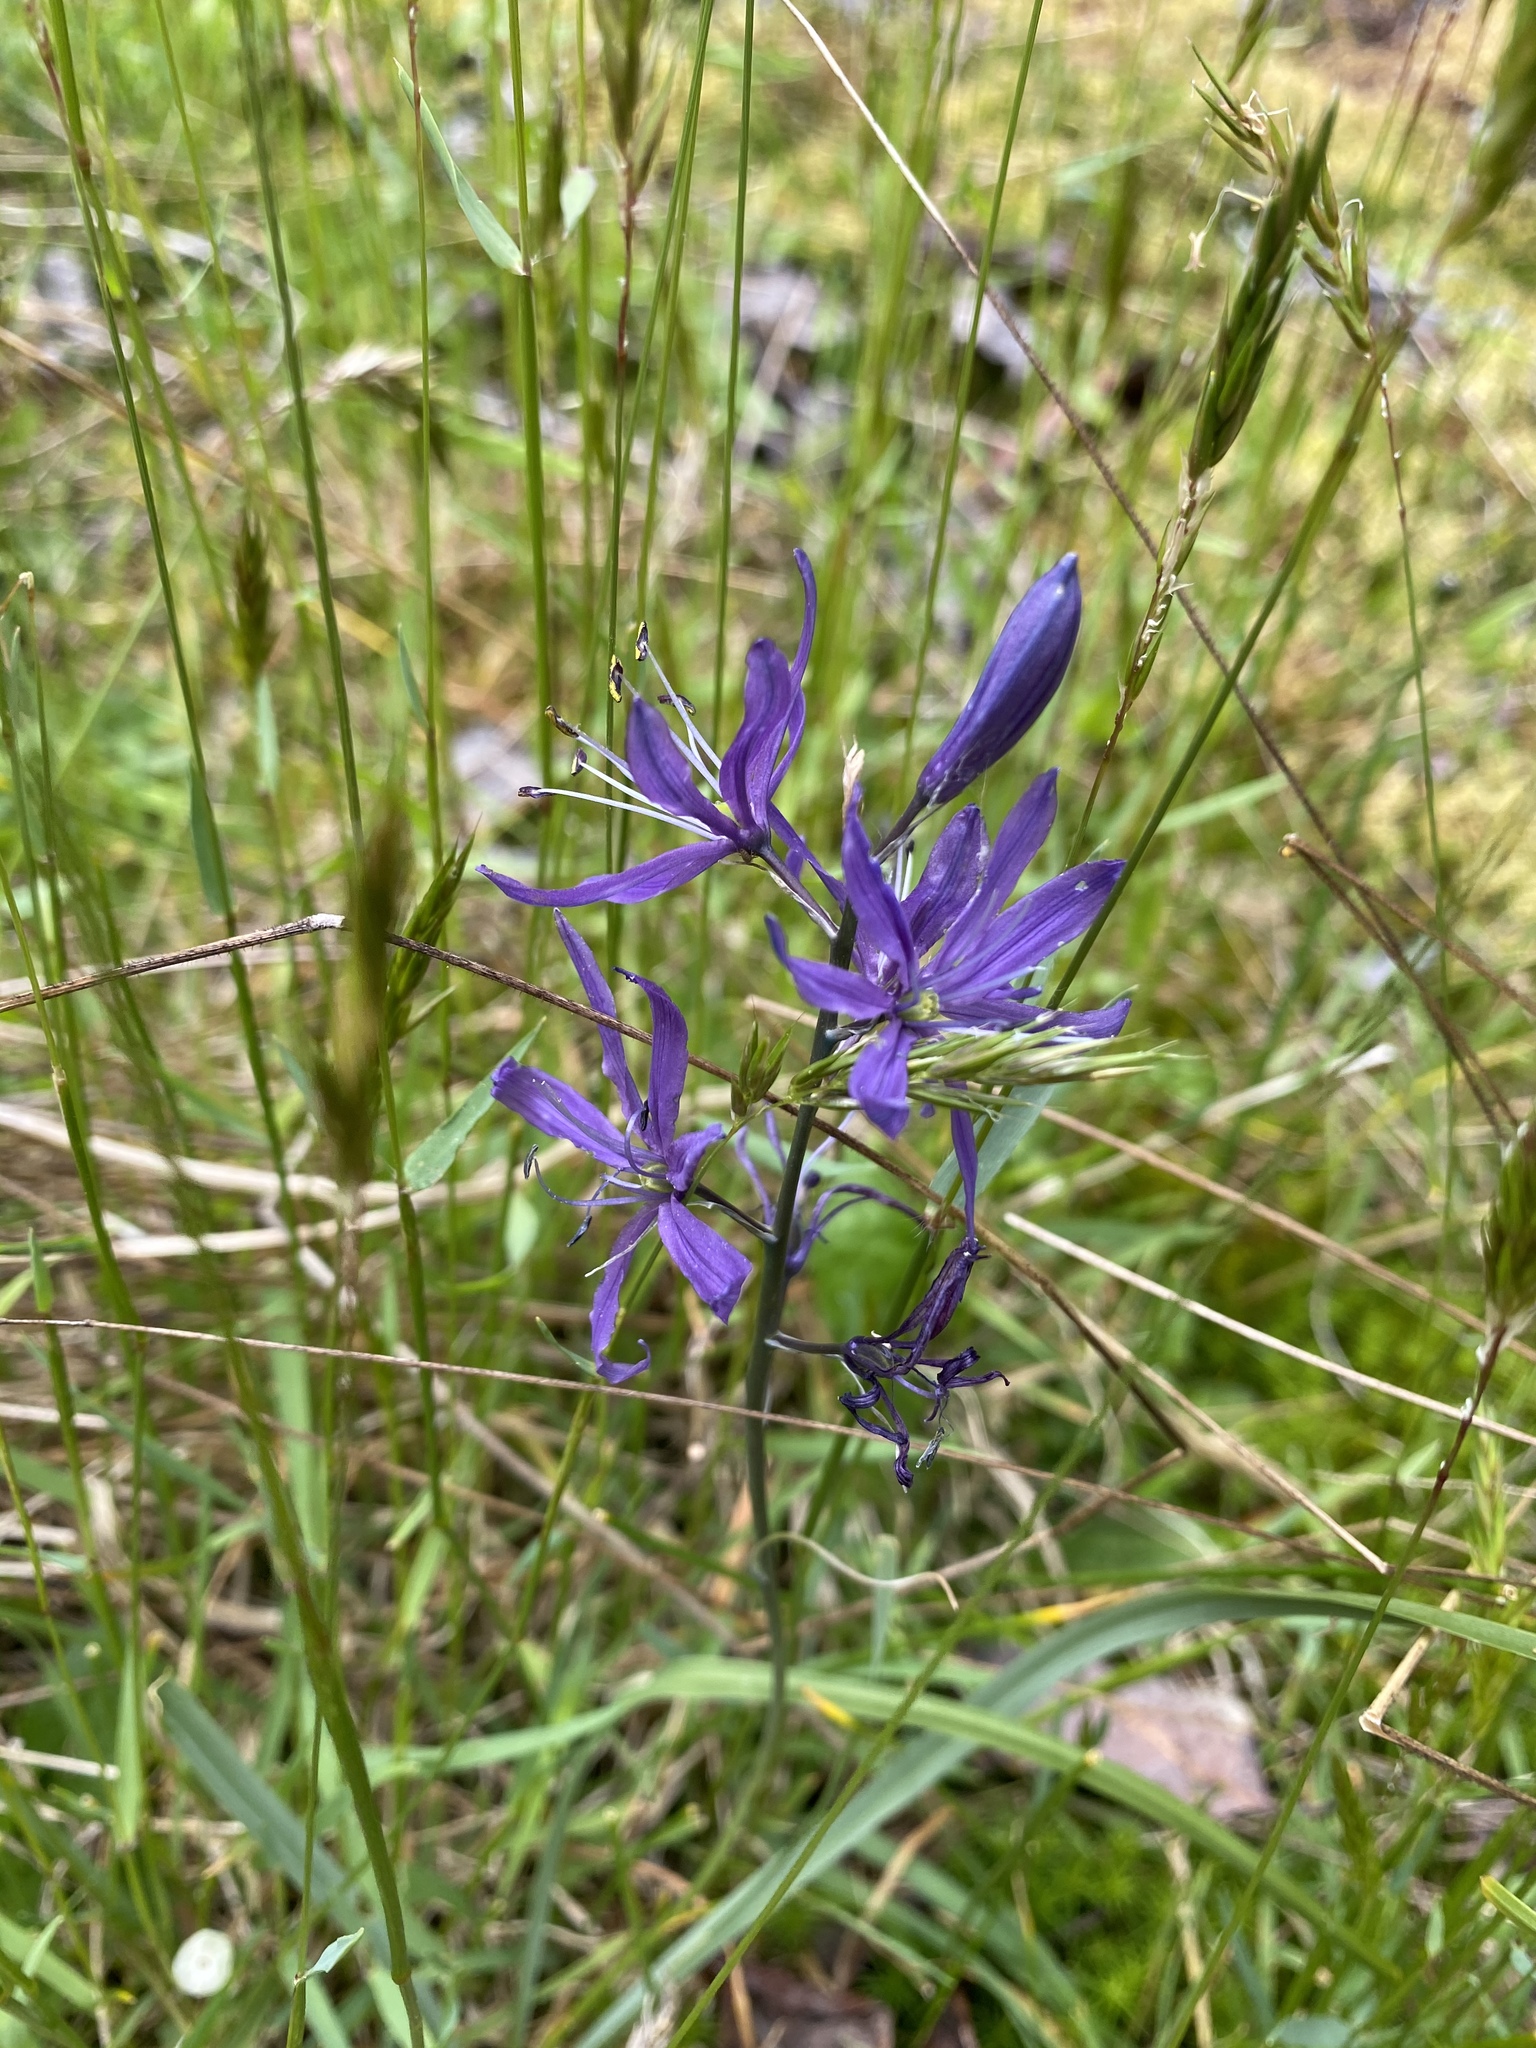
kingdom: Plantae
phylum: Tracheophyta
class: Liliopsida
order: Asparagales
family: Asparagaceae
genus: Camassia
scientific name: Camassia quamash
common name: Common camas
